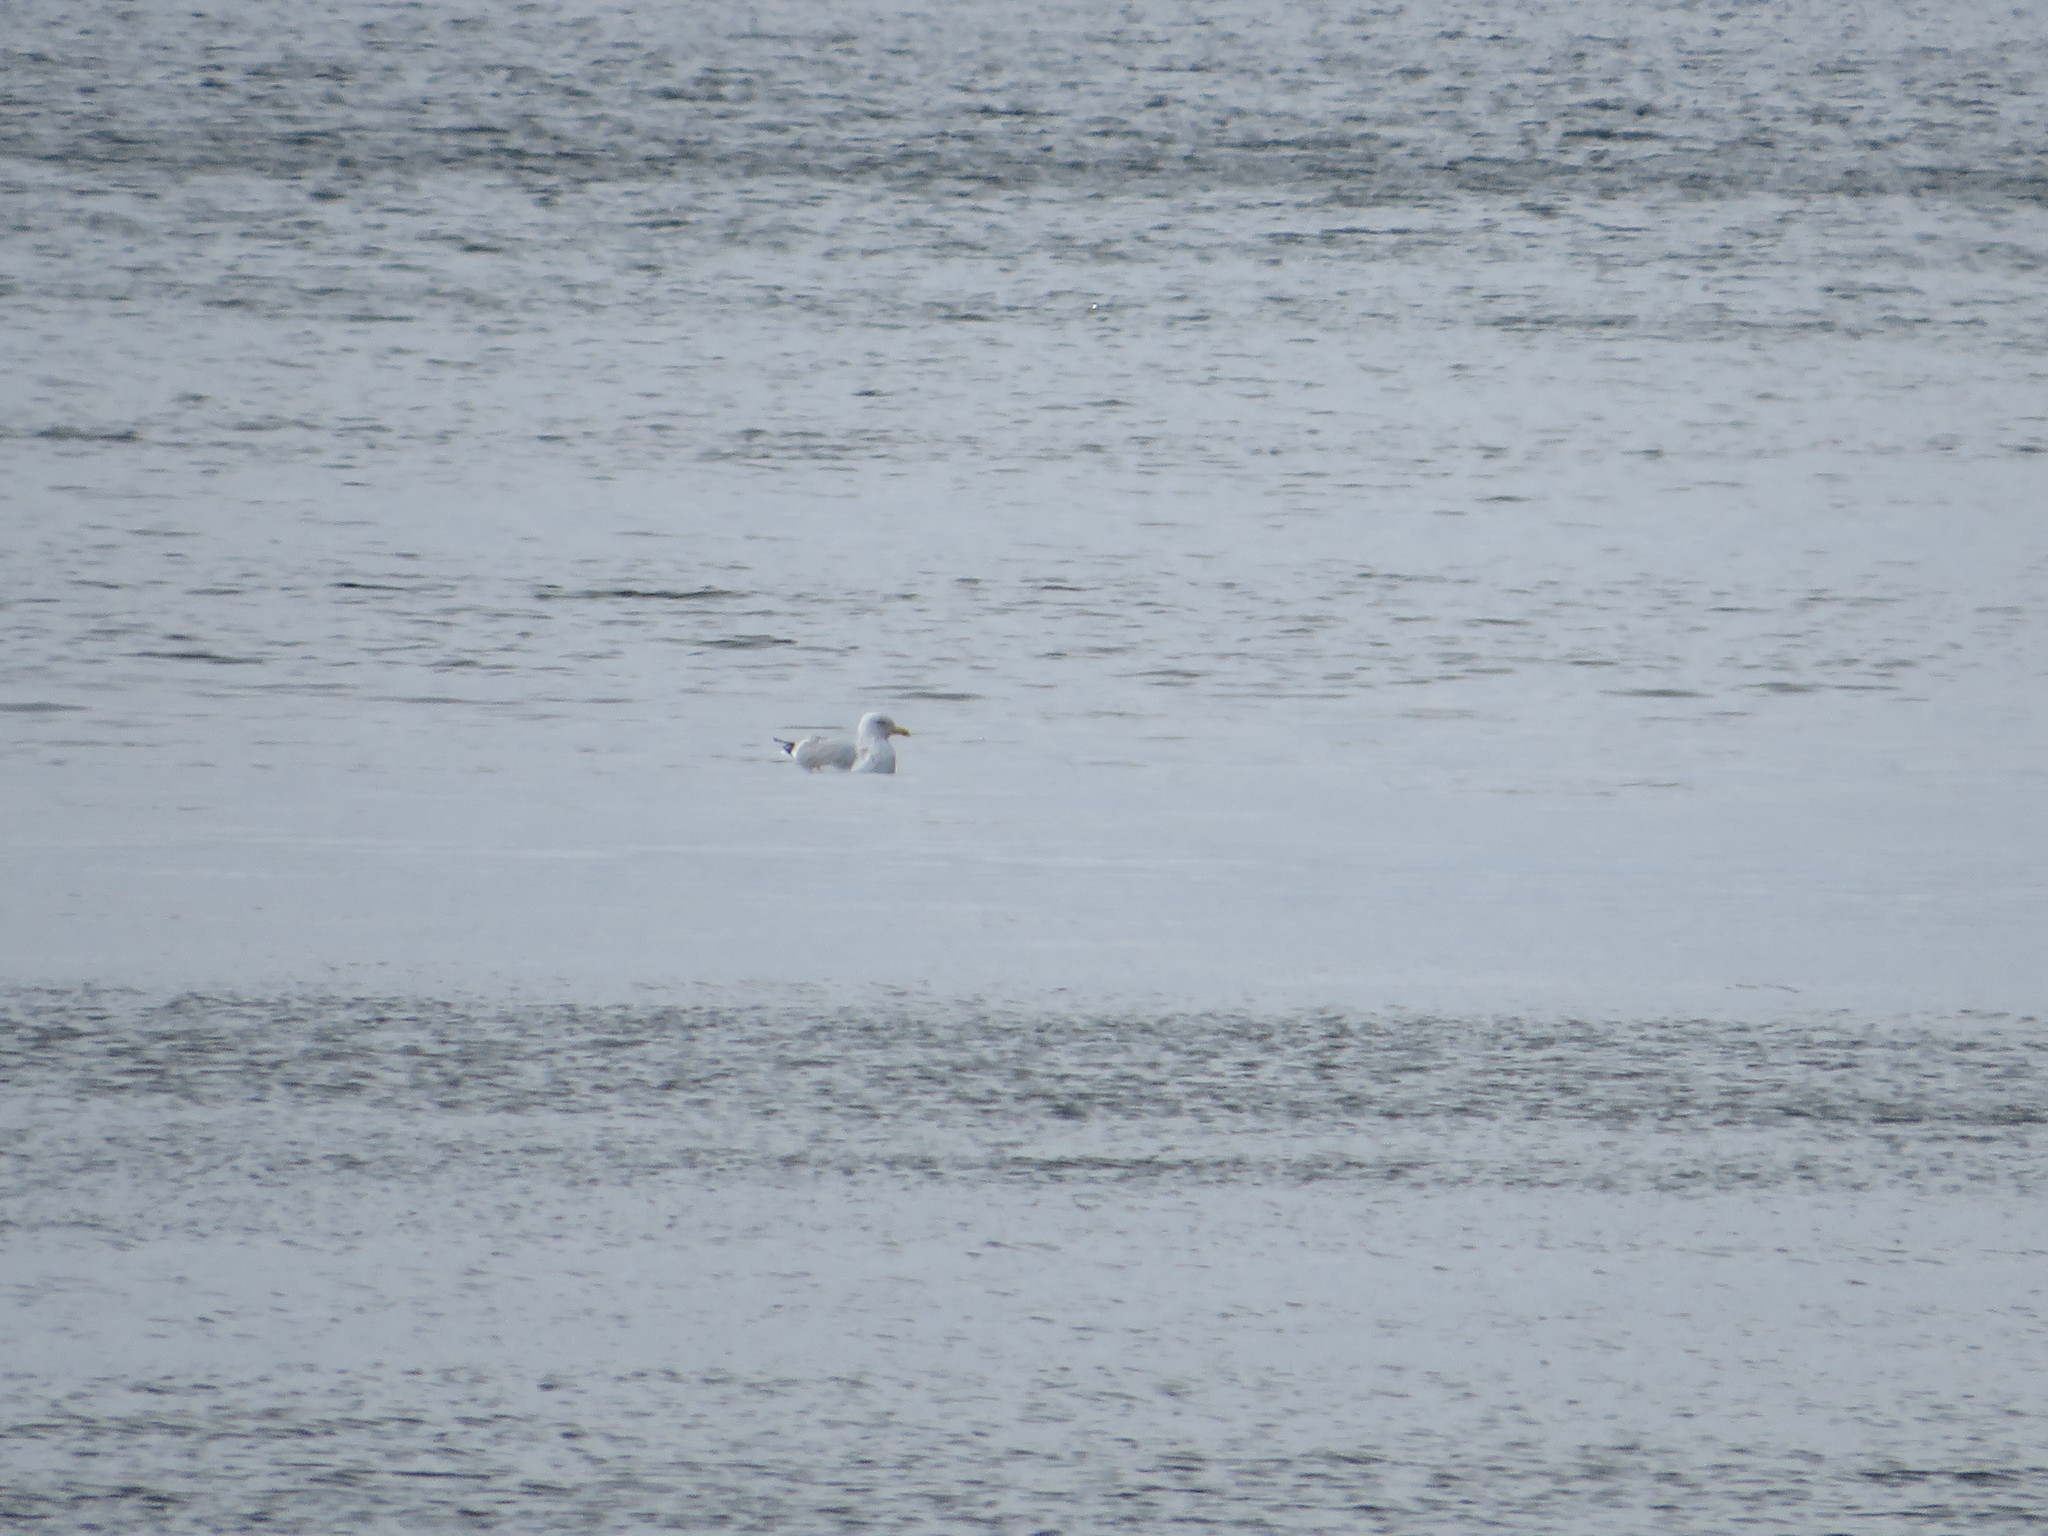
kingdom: Animalia
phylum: Chordata
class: Aves
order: Charadriiformes
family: Laridae
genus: Larus
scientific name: Larus argentatus
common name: Herring gull
